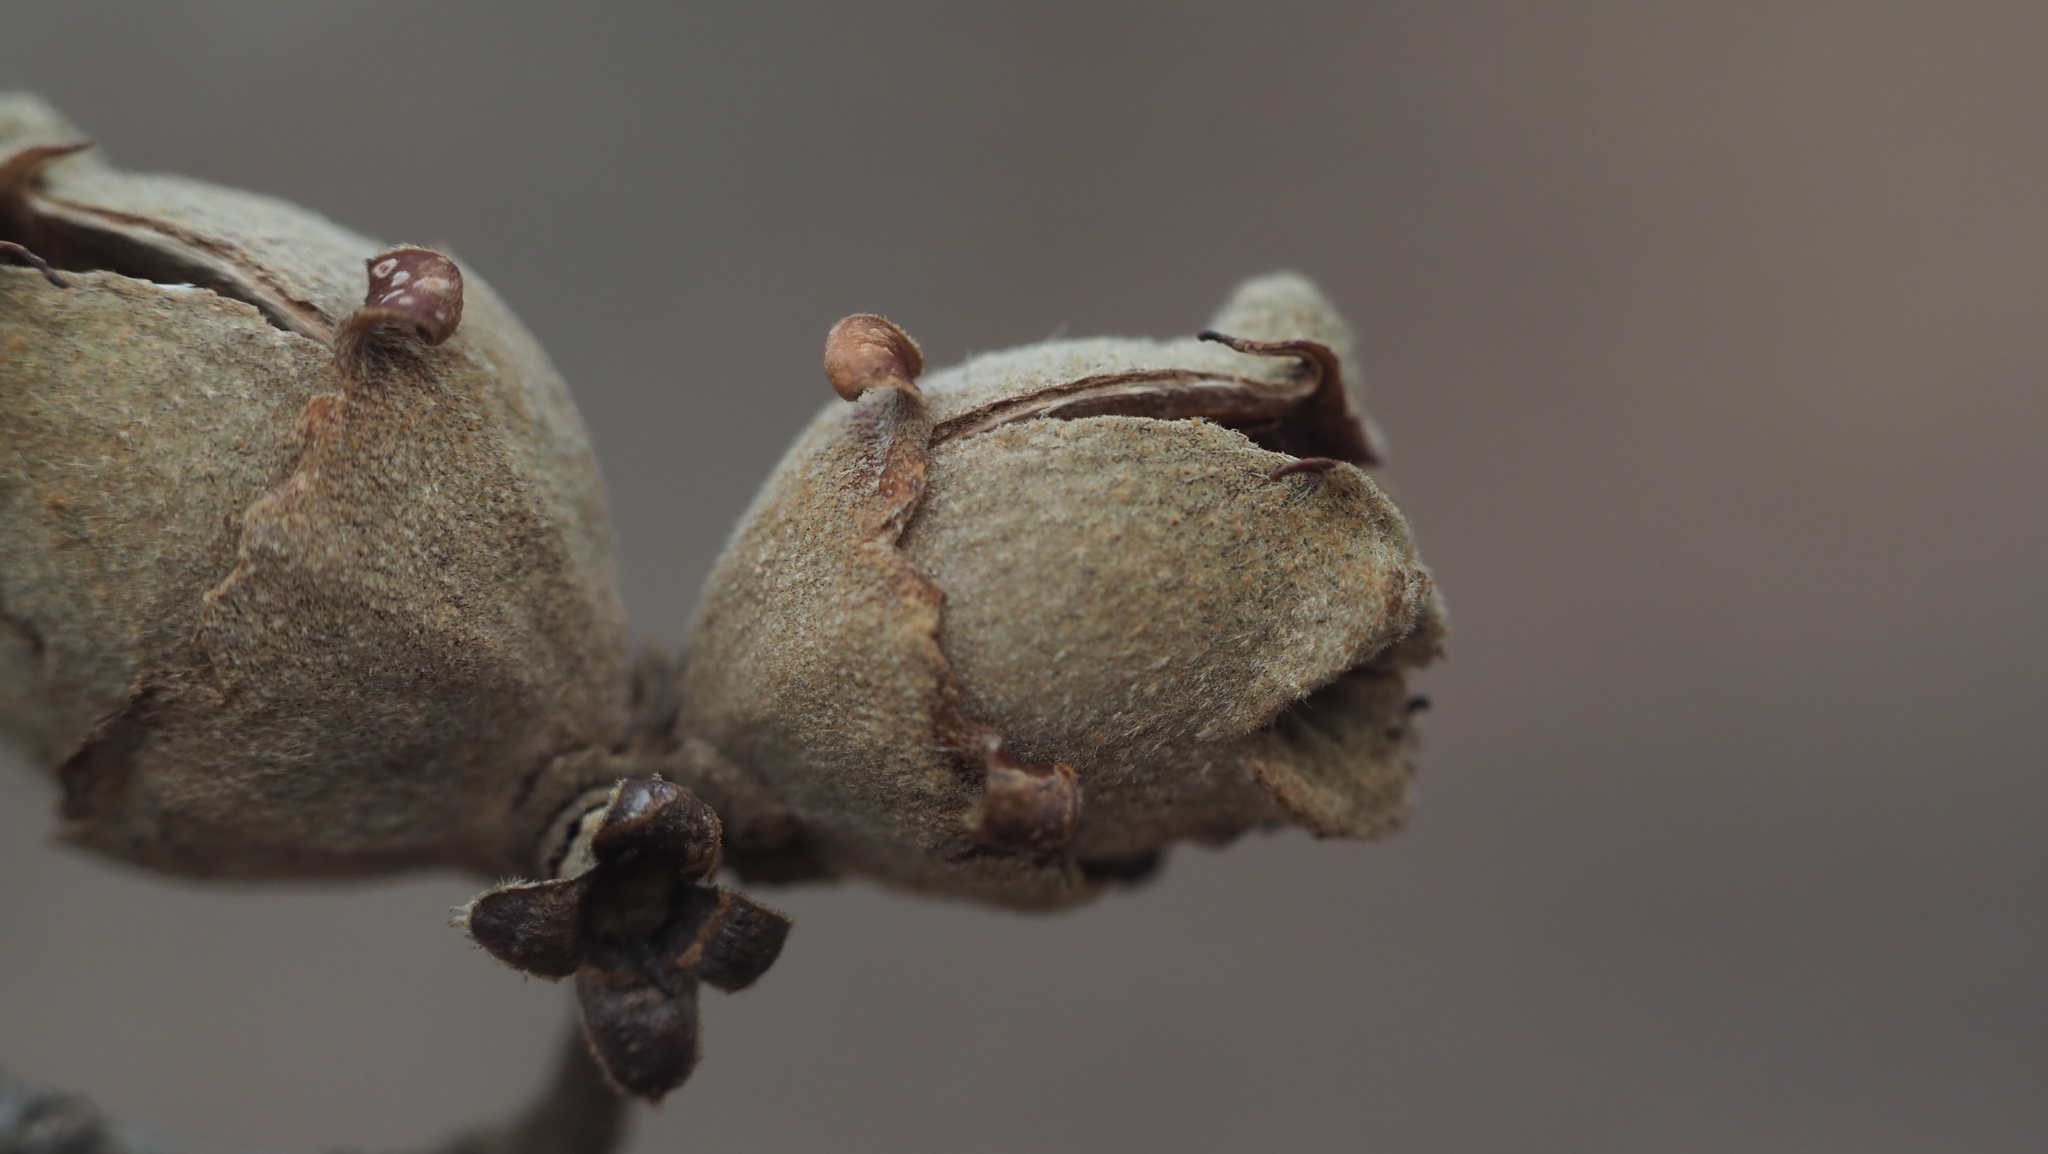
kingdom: Plantae
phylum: Tracheophyta
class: Magnoliopsida
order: Saxifragales
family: Hamamelidaceae
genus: Hamamelis
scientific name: Hamamelis virginiana
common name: Witch-hazel
